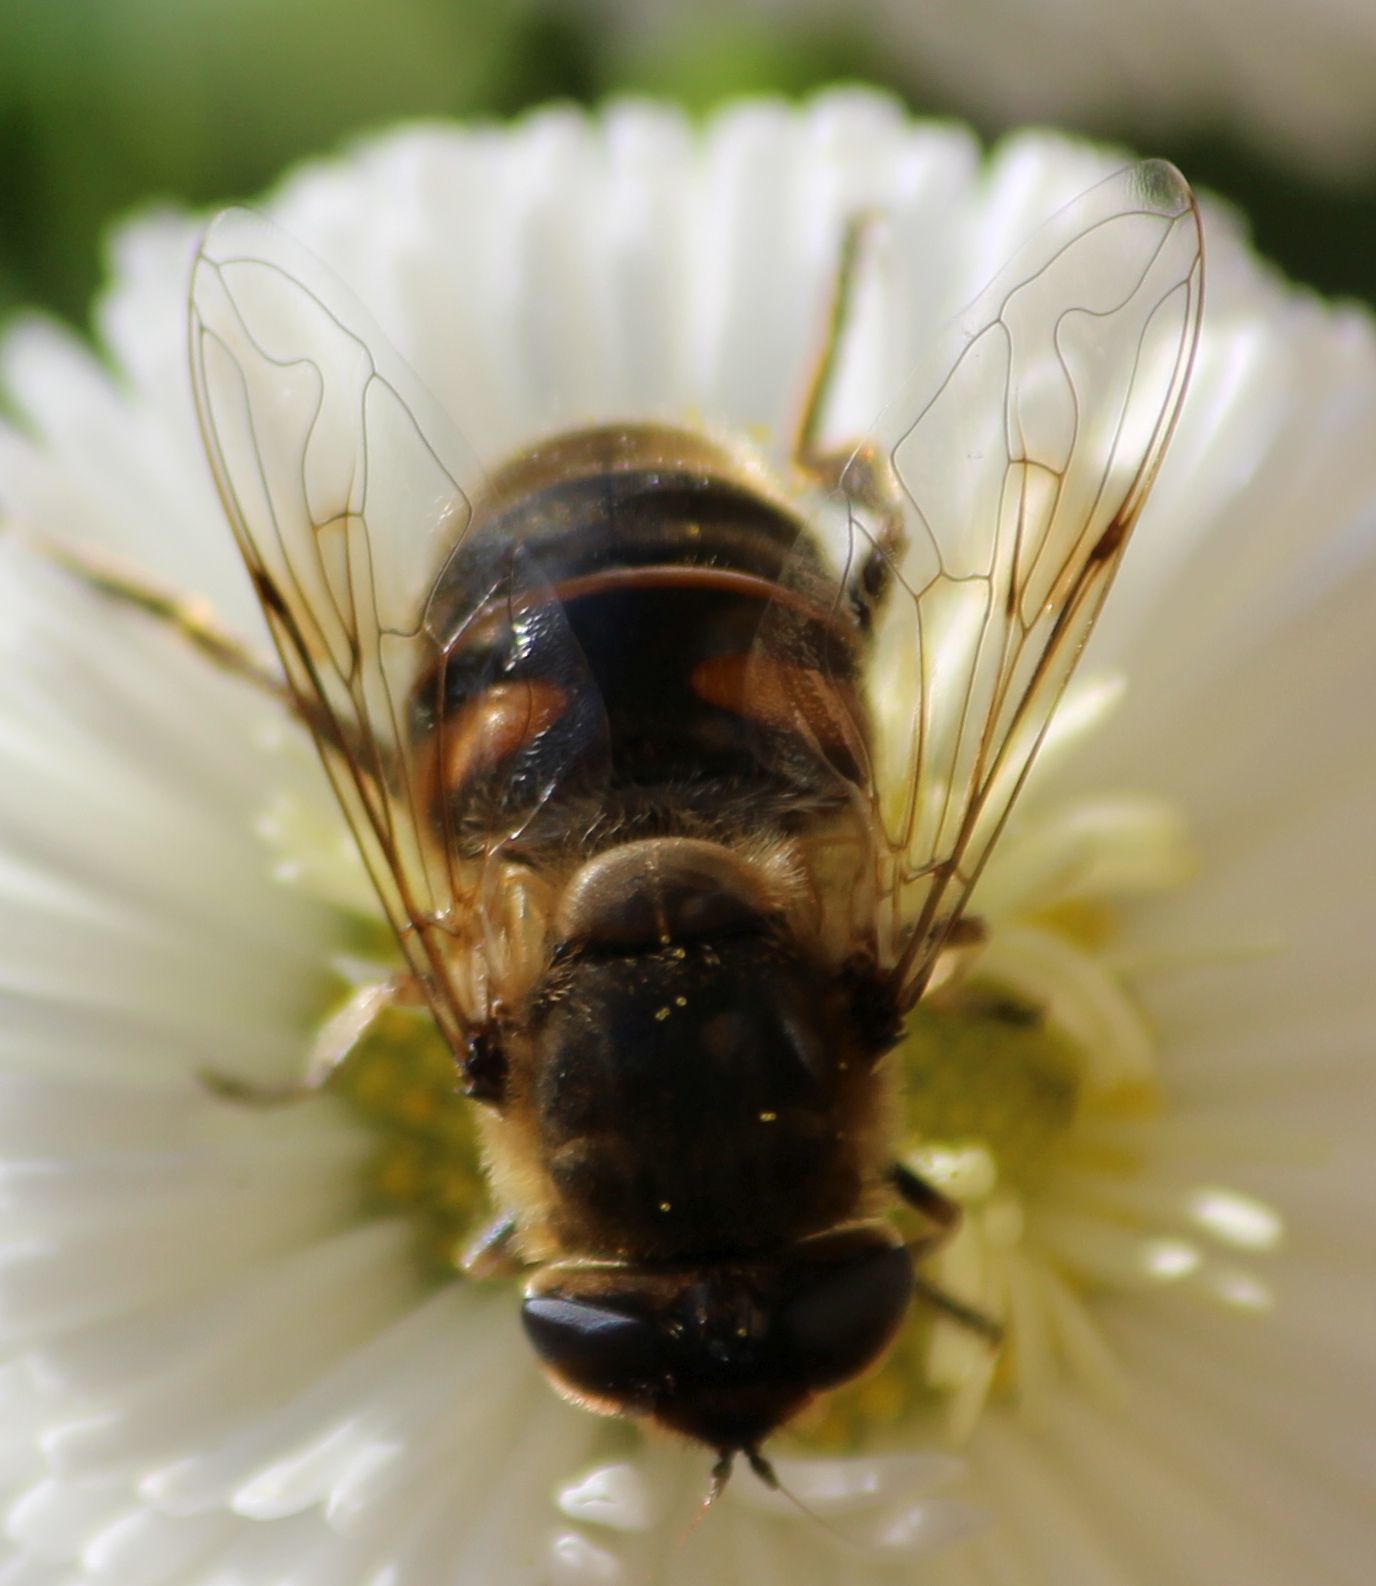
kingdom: Animalia
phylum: Arthropoda
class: Insecta
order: Diptera
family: Syrphidae
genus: Eristalis
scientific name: Eristalis tenax
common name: Drone fly
